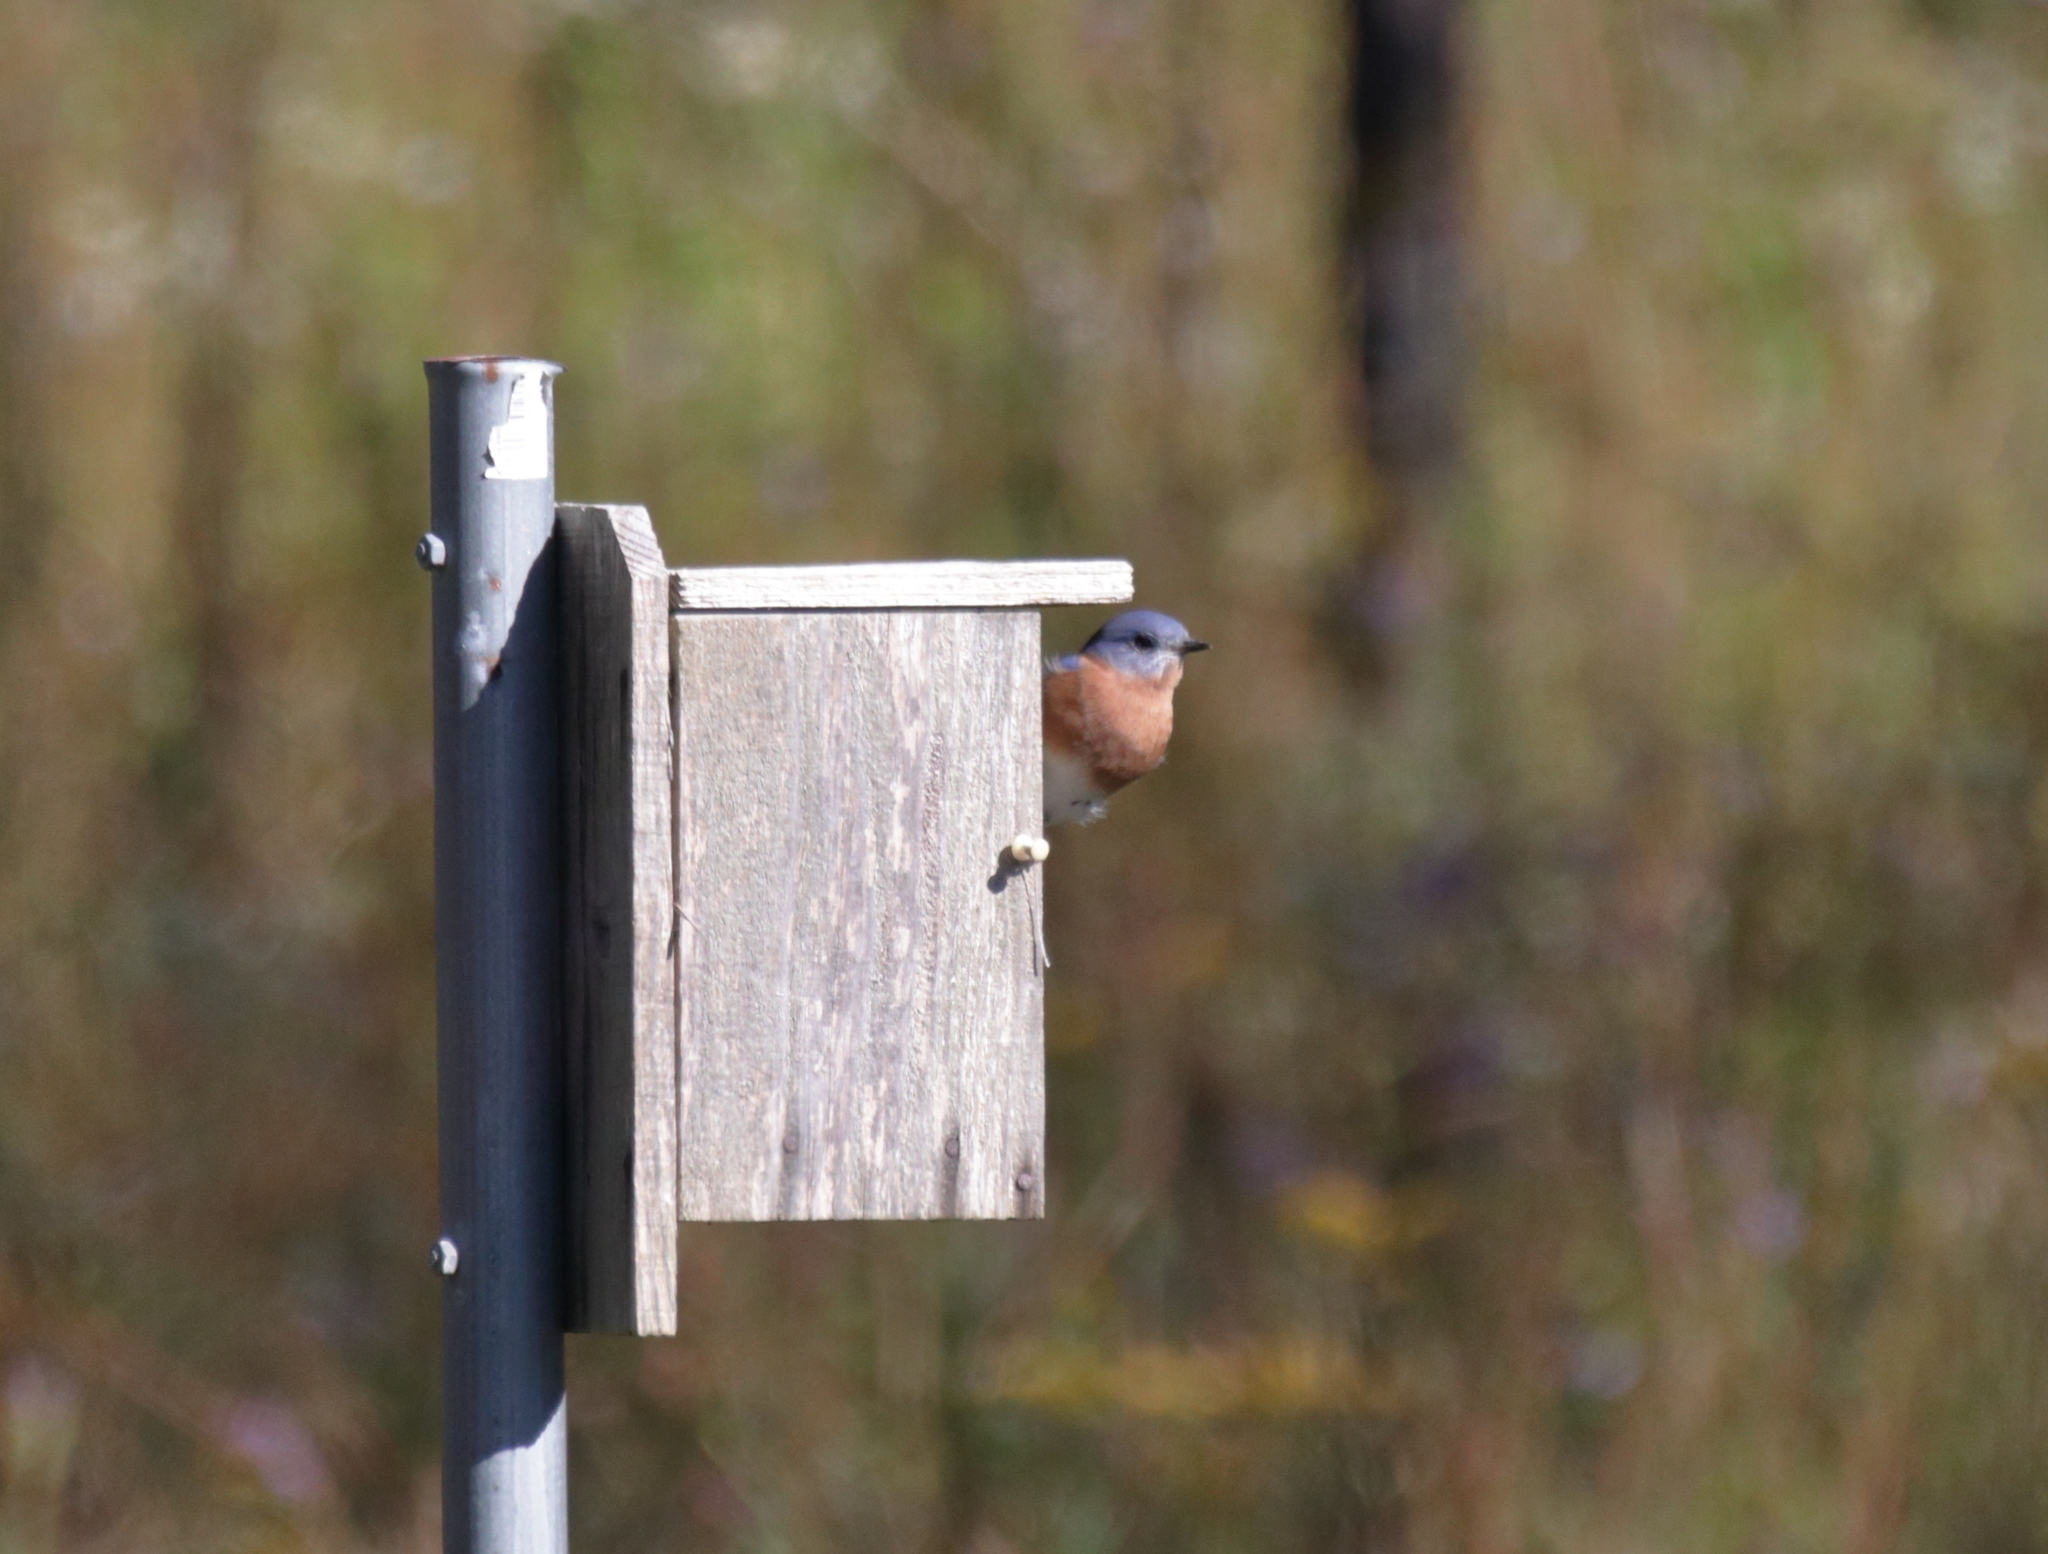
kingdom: Animalia
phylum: Chordata
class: Aves
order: Passeriformes
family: Turdidae
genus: Sialia
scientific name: Sialia sialis
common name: Eastern bluebird
